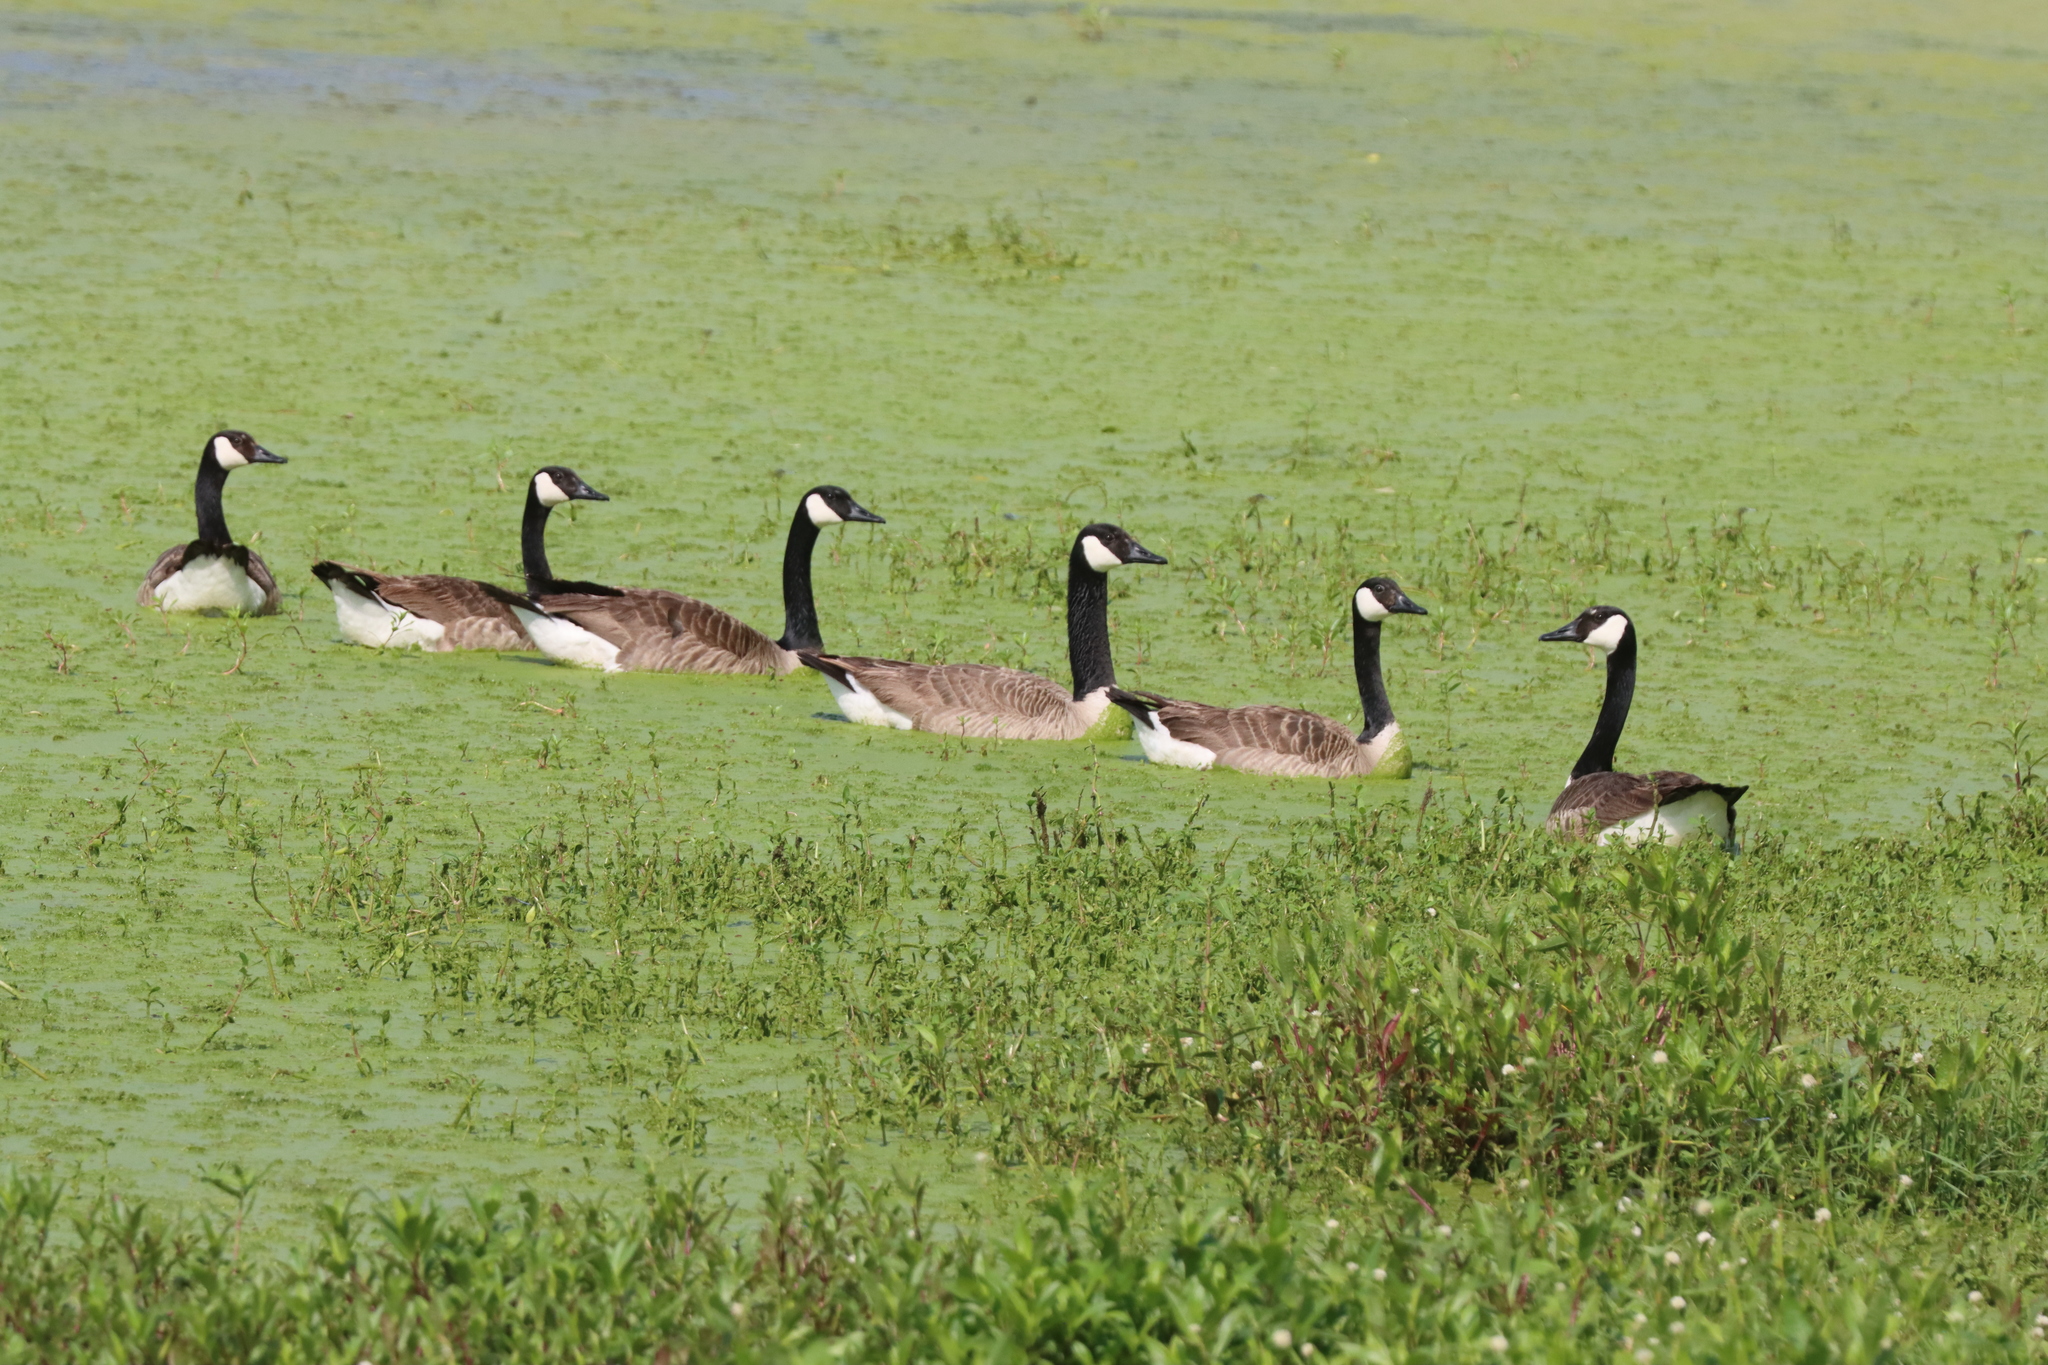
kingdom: Animalia
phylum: Chordata
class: Aves
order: Anseriformes
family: Anatidae
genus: Branta
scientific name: Branta canadensis
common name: Canada goose
